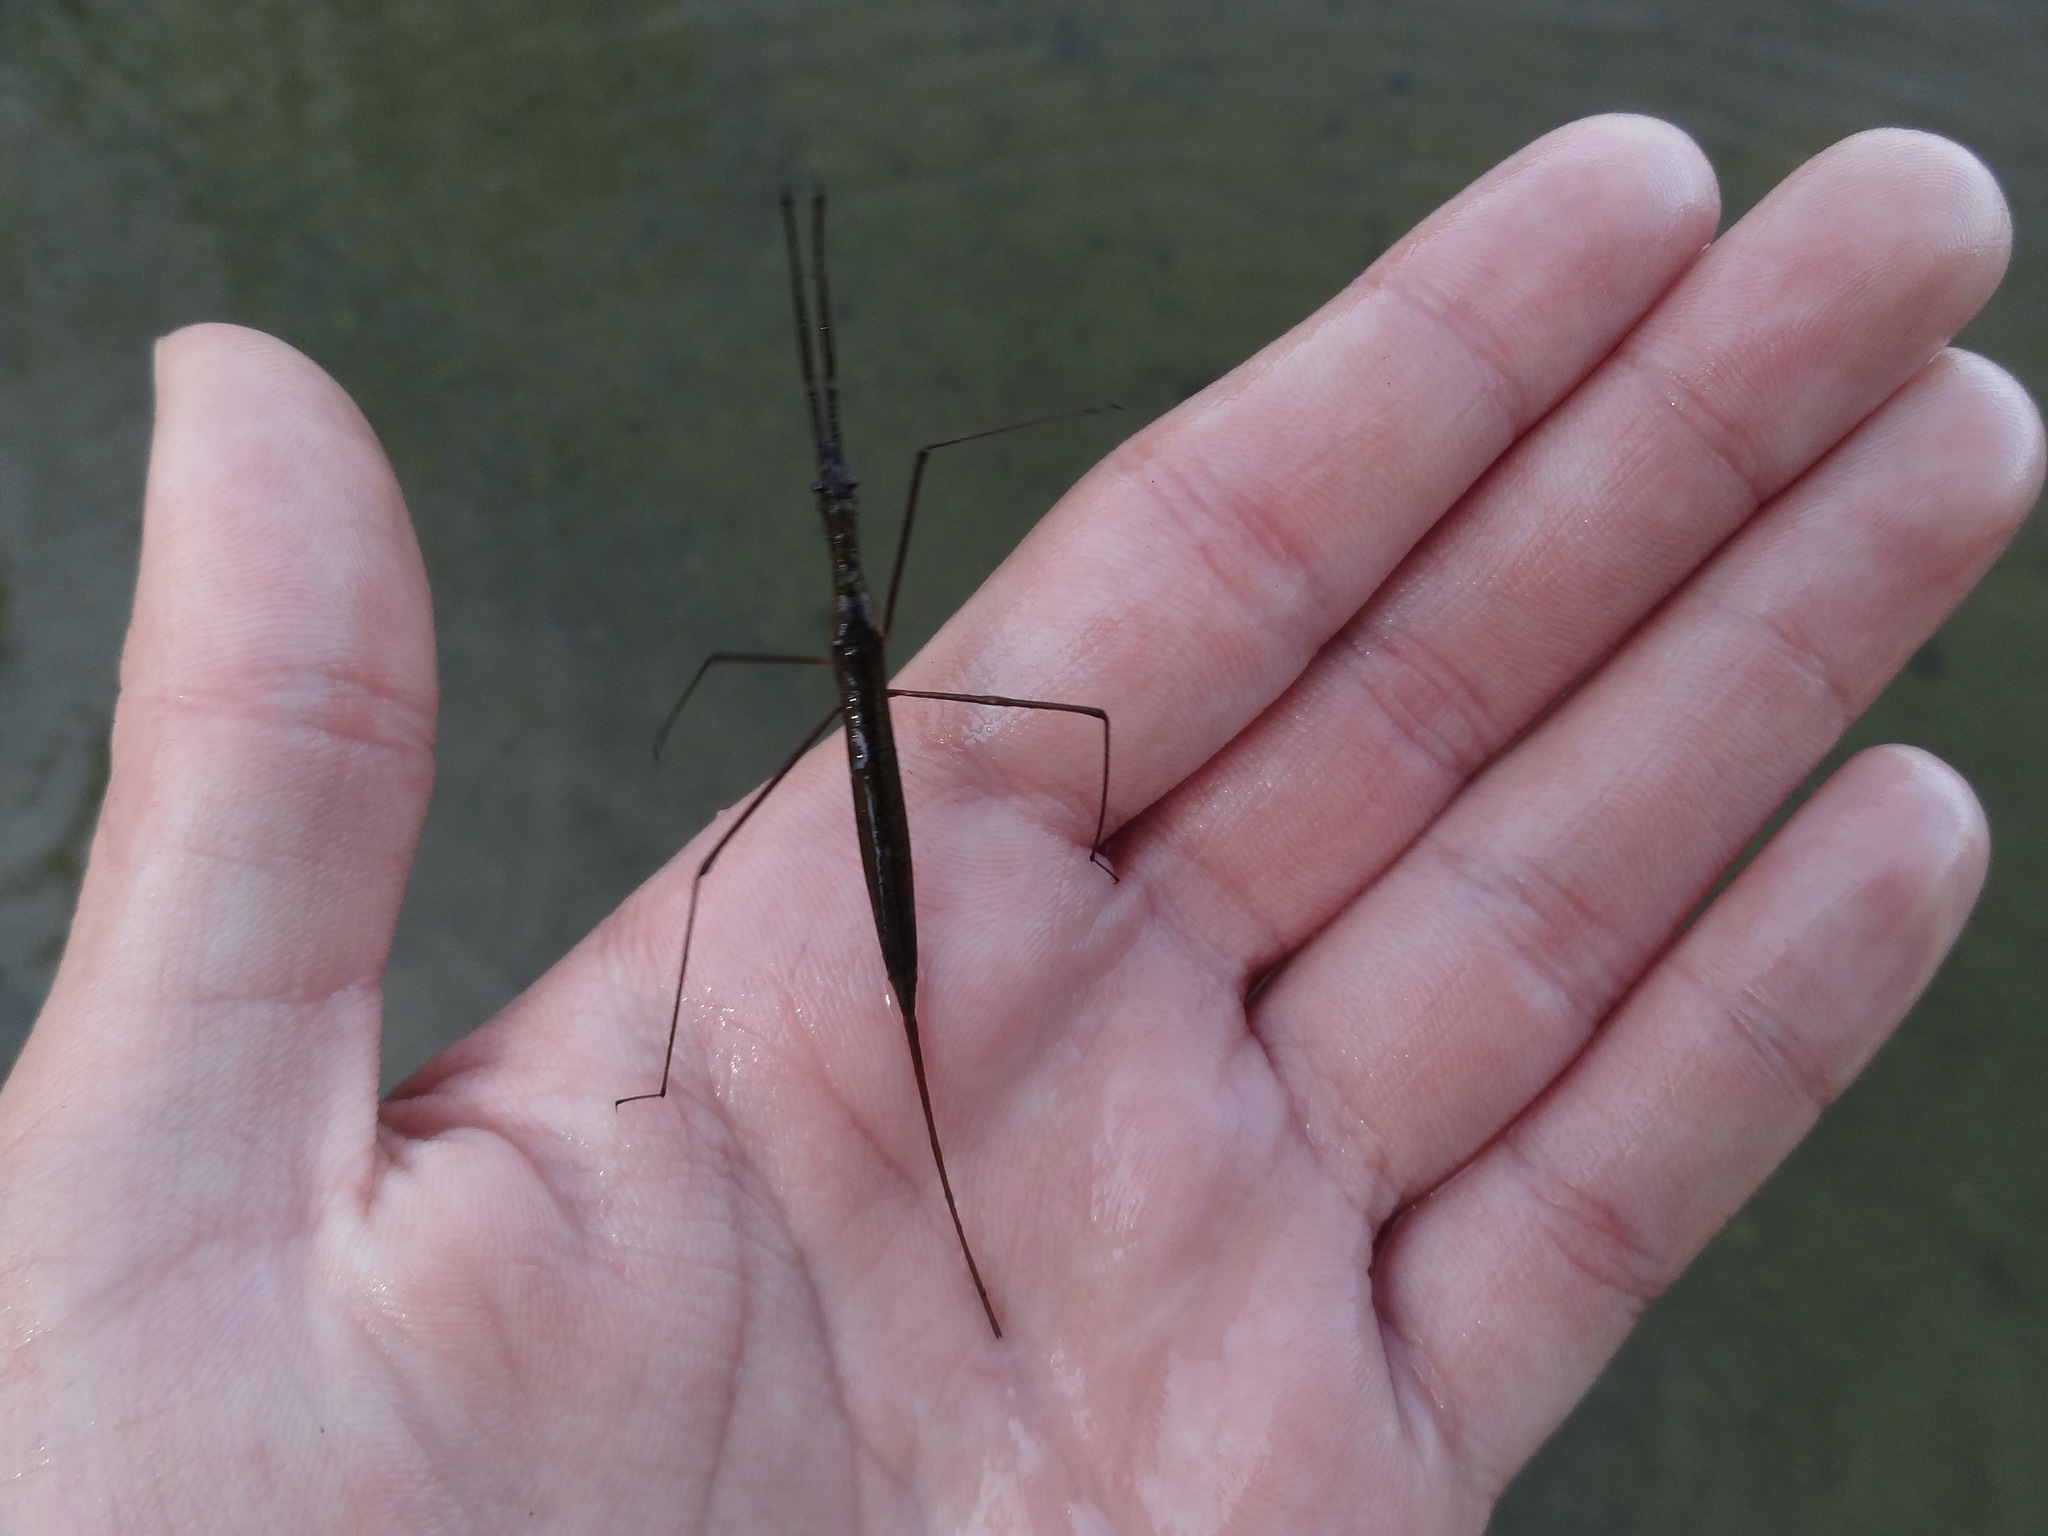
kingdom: Animalia
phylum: Arthropoda
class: Insecta
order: Hemiptera
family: Nepidae
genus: Ranatra
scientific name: Ranatra
